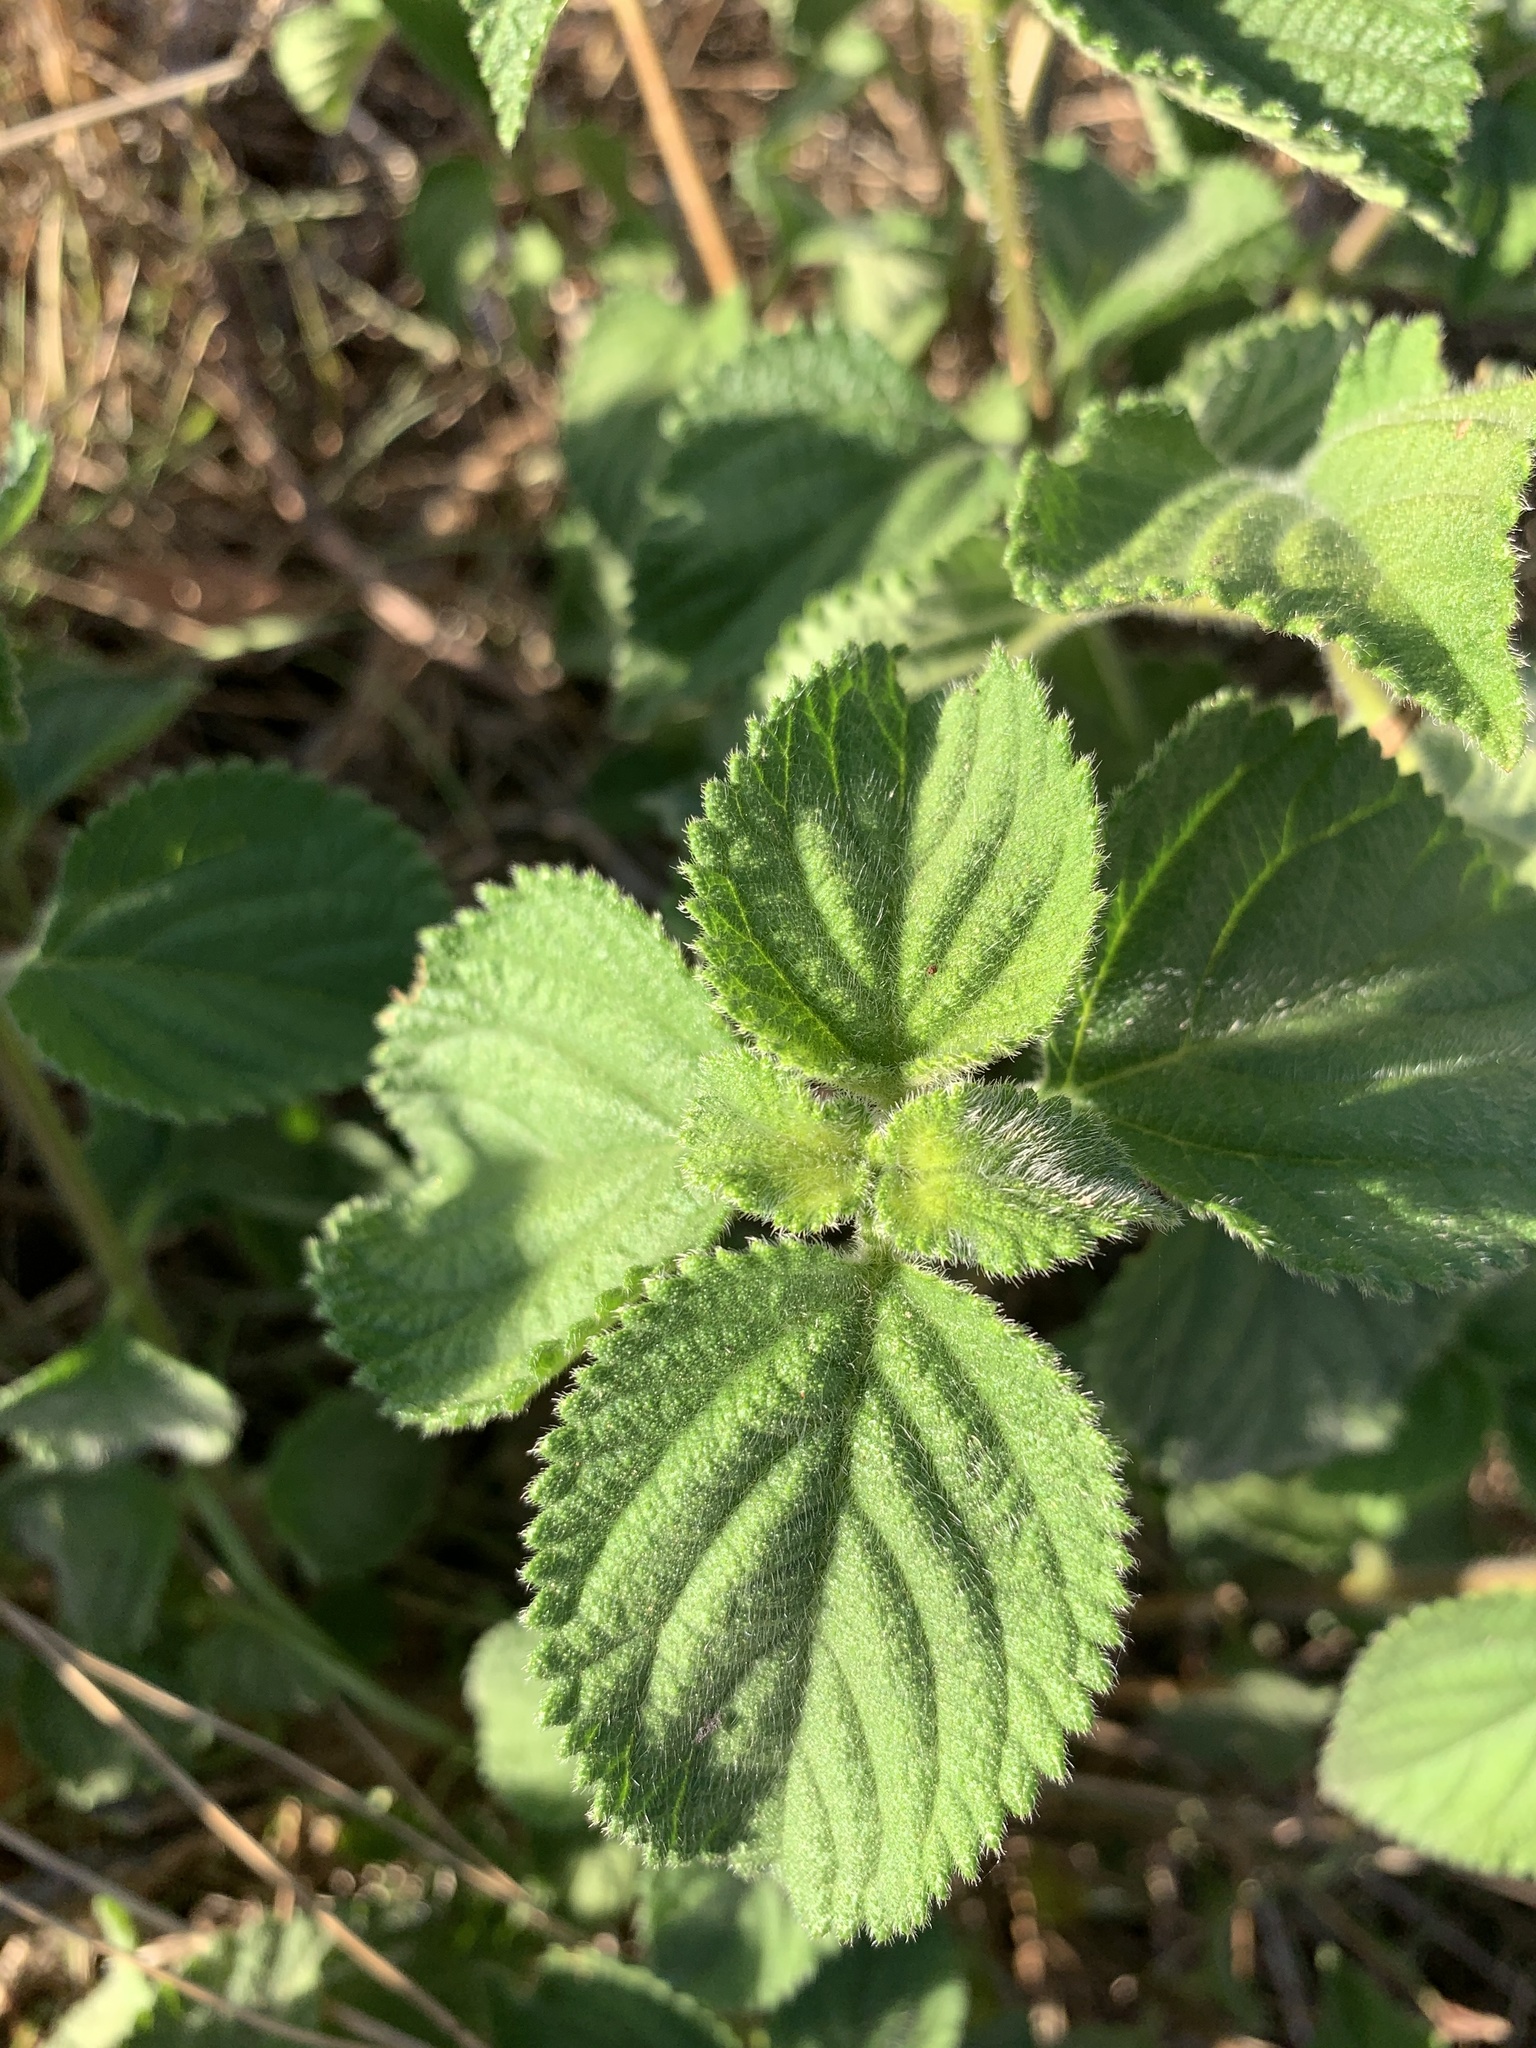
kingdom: Plantae
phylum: Tracheophyta
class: Magnoliopsida
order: Lamiales
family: Verbenaceae
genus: Lantana
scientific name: Lantana camara
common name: Lantana
